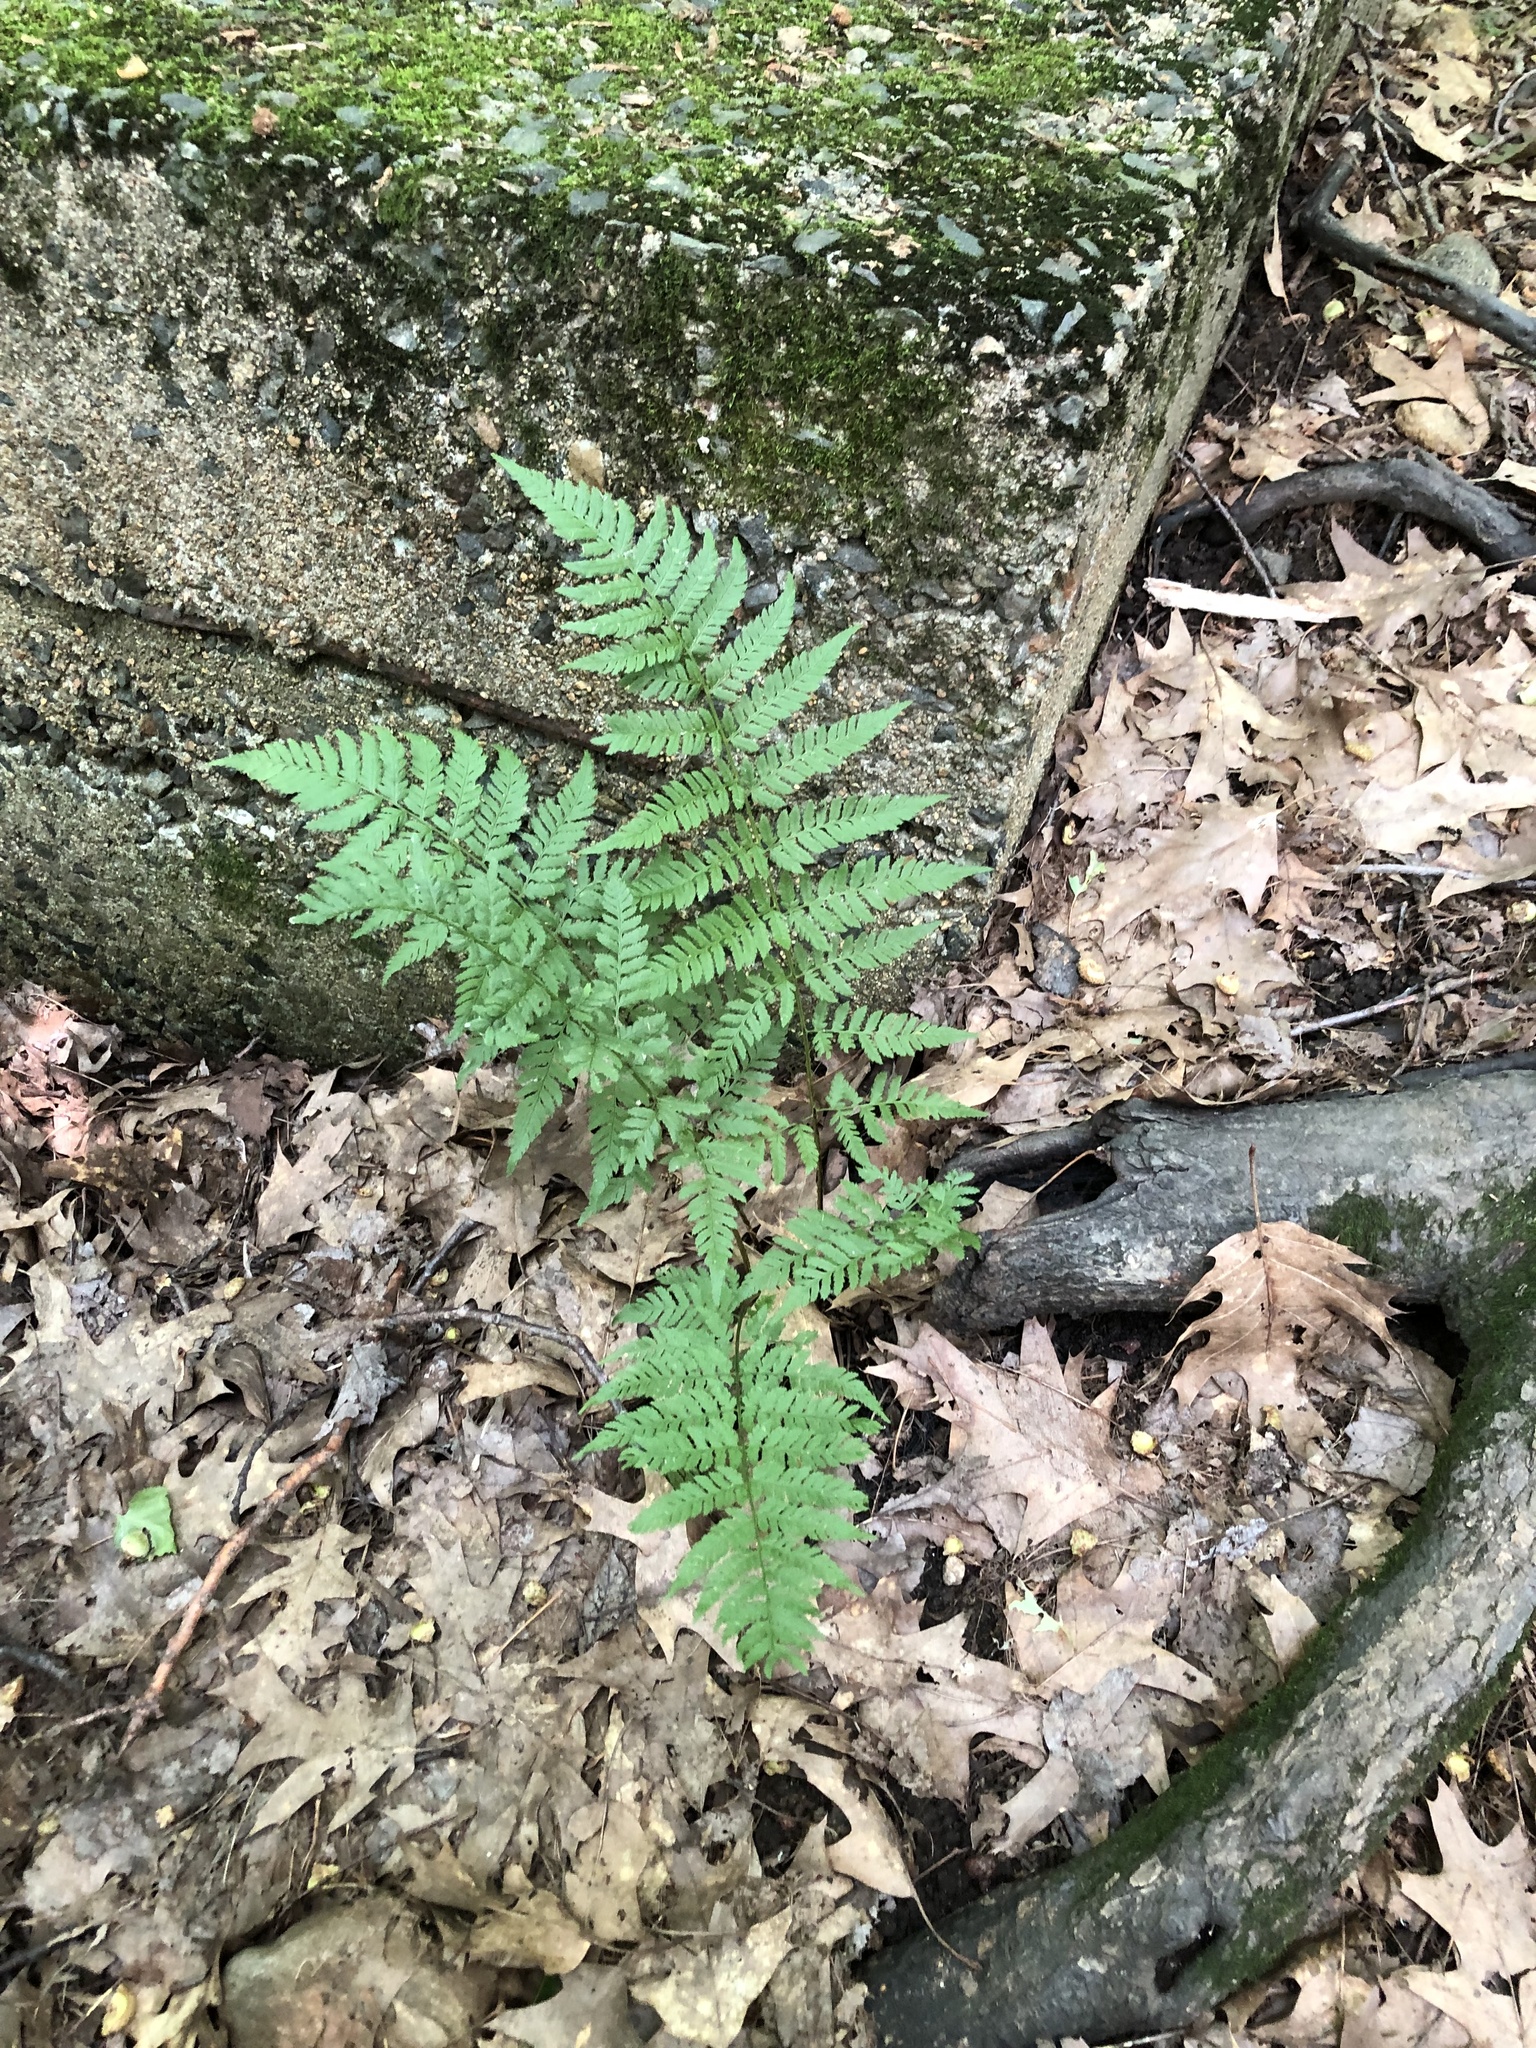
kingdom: Plantae
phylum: Tracheophyta
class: Polypodiopsida
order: Polypodiales
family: Athyriaceae
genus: Athyrium
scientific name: Athyrium angustum
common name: Northern lady fern
